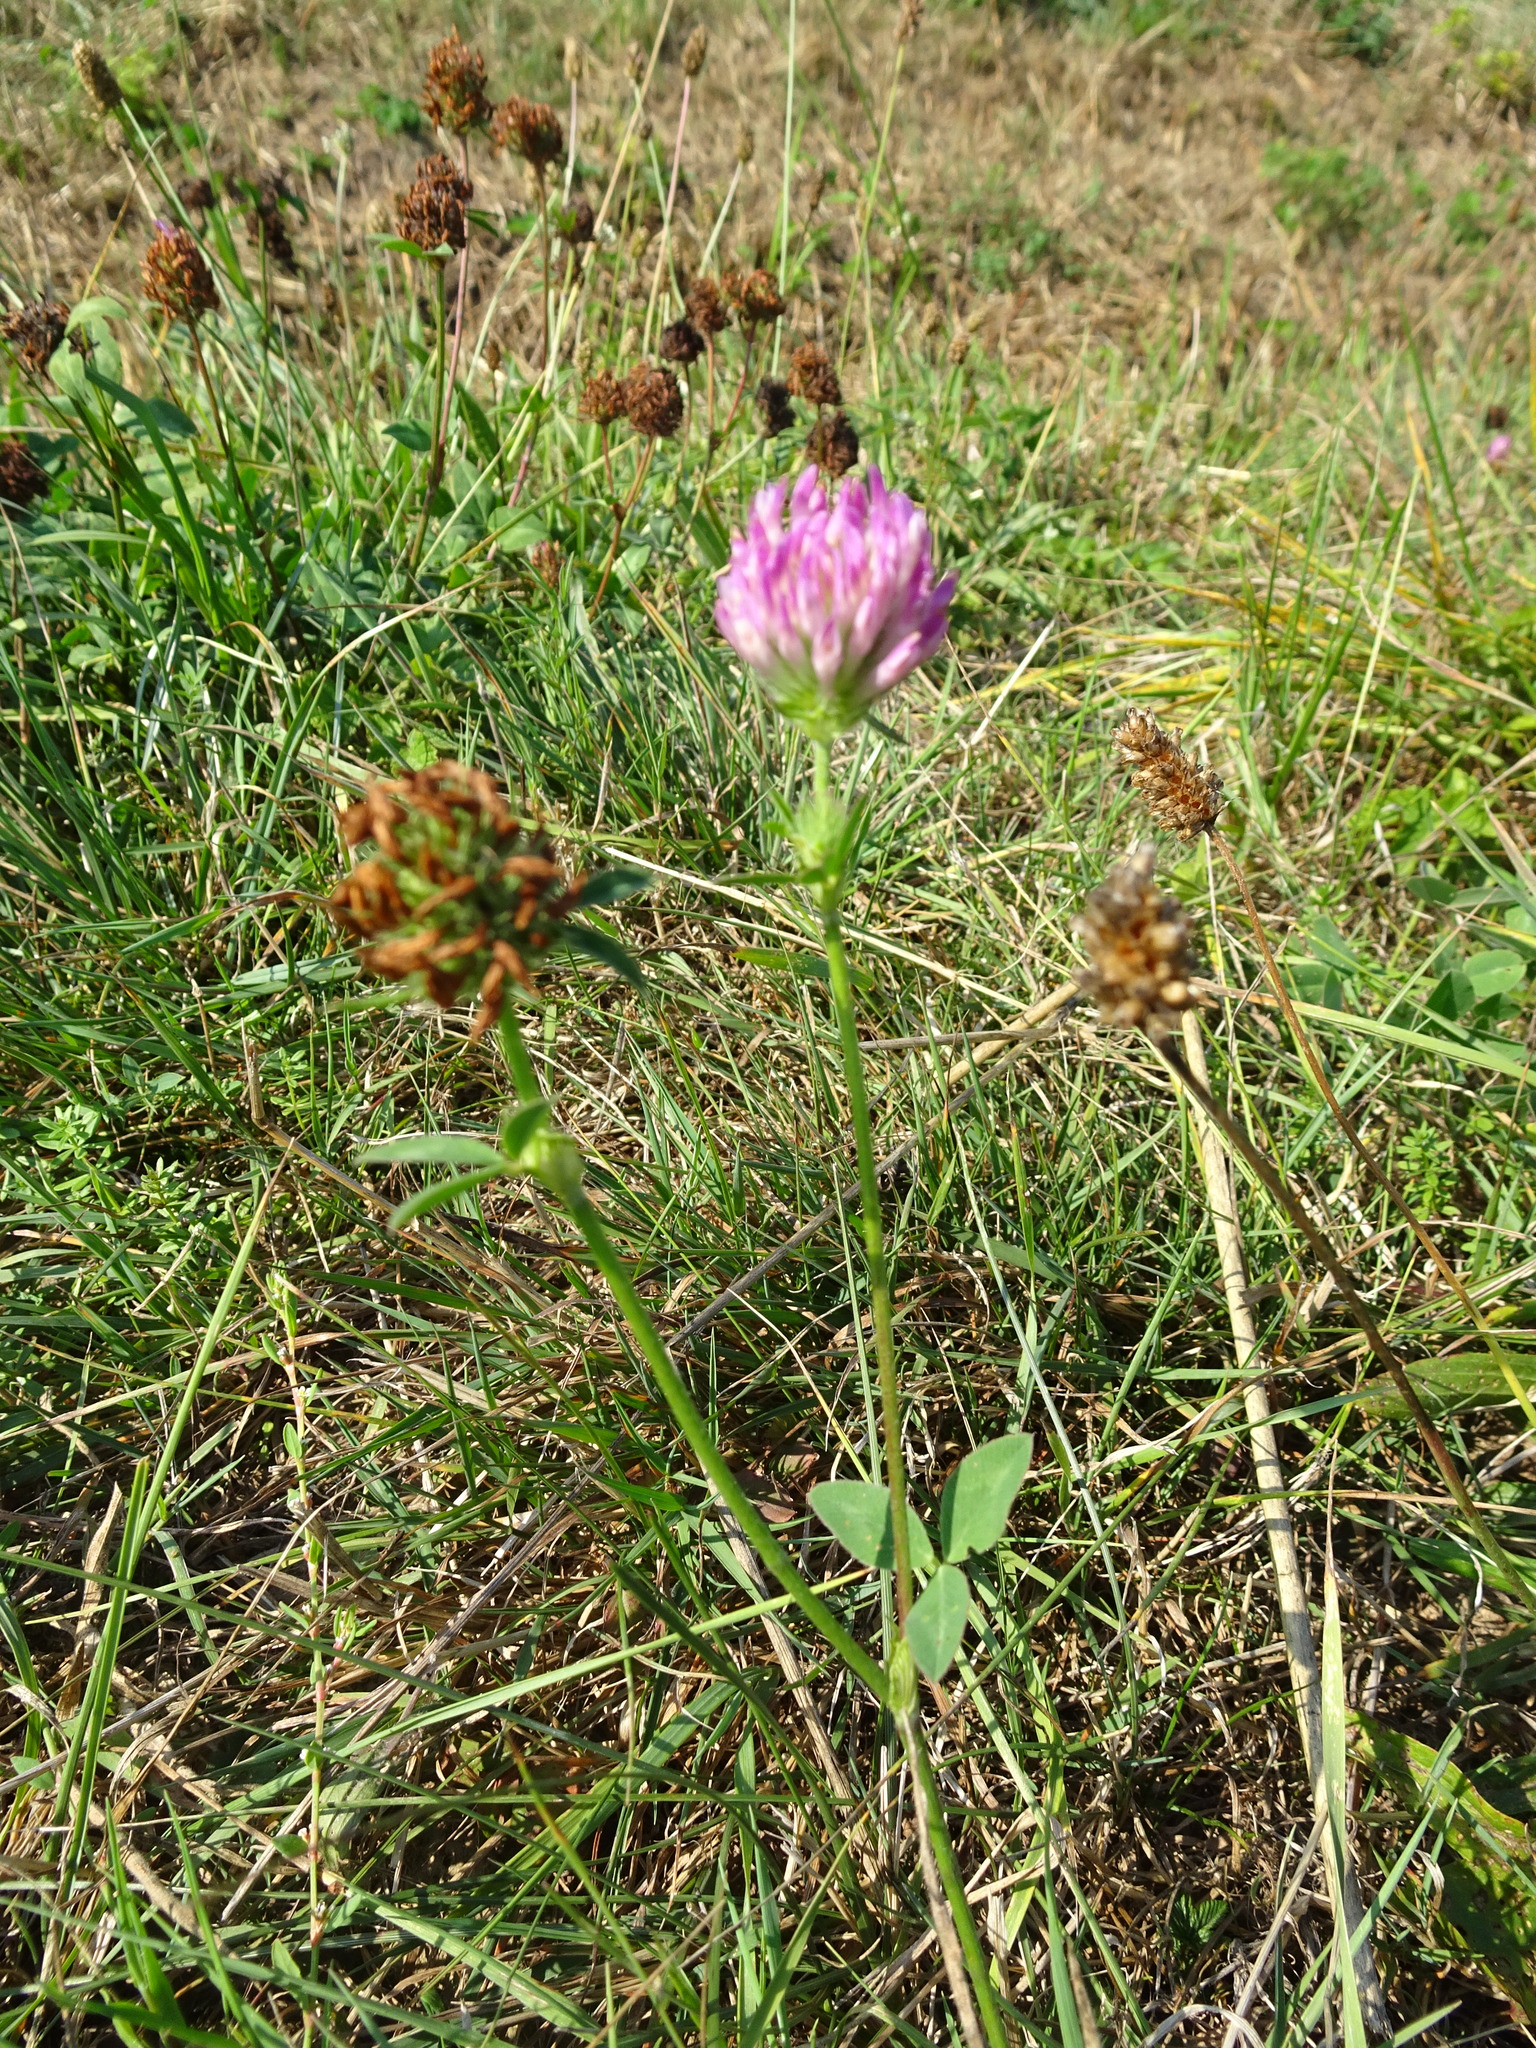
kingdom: Plantae
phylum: Tracheophyta
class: Magnoliopsida
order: Fabales
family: Fabaceae
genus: Trifolium
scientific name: Trifolium pratense
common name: Red clover
